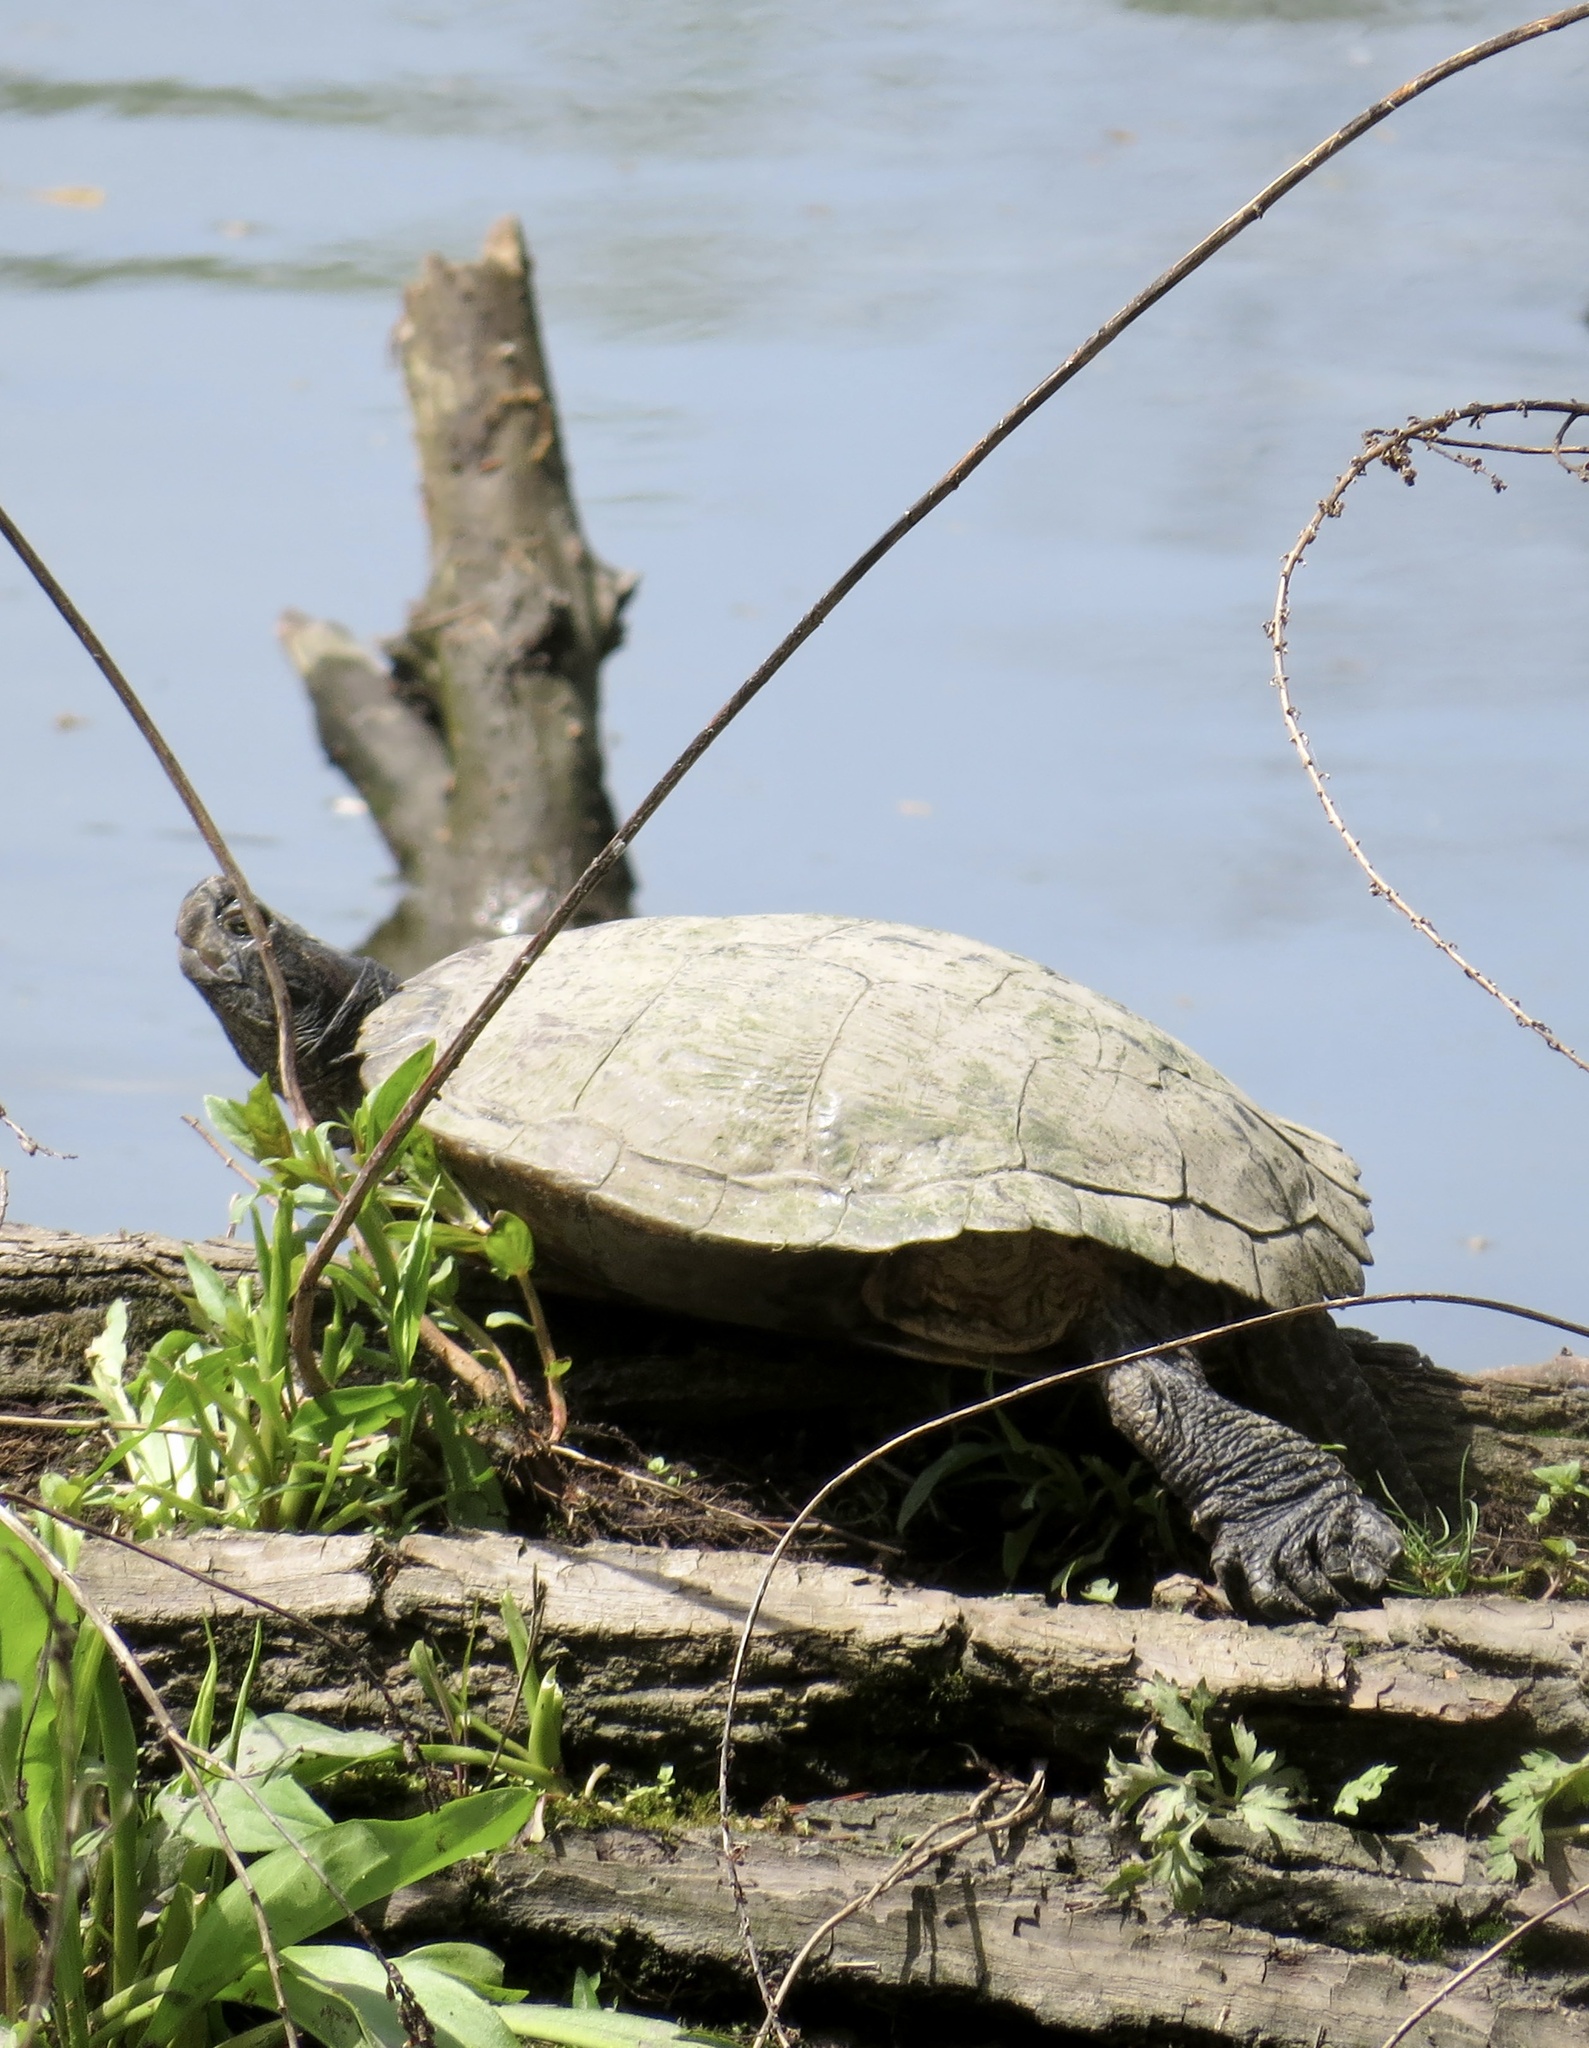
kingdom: Animalia
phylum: Chordata
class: Testudines
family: Emydidae
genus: Trachemys
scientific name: Trachemys scripta
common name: Slider
